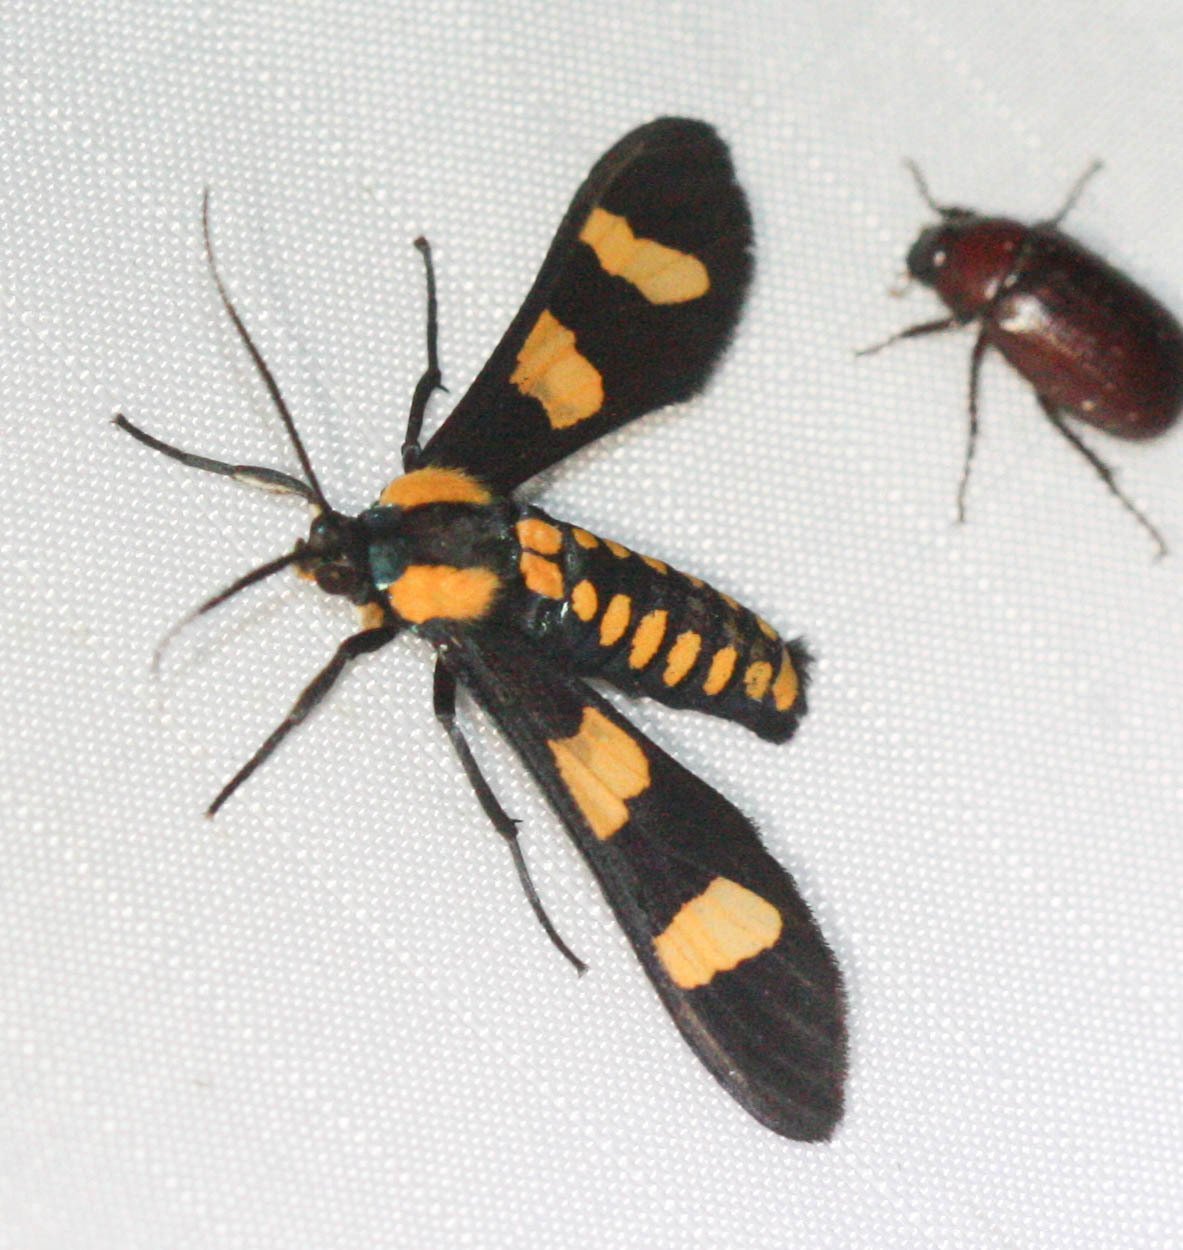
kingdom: Animalia
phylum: Arthropoda
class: Insecta
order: Lepidoptera
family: Erebidae
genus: Phoenicoprocta
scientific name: Phoenicoprocta hampsonii
